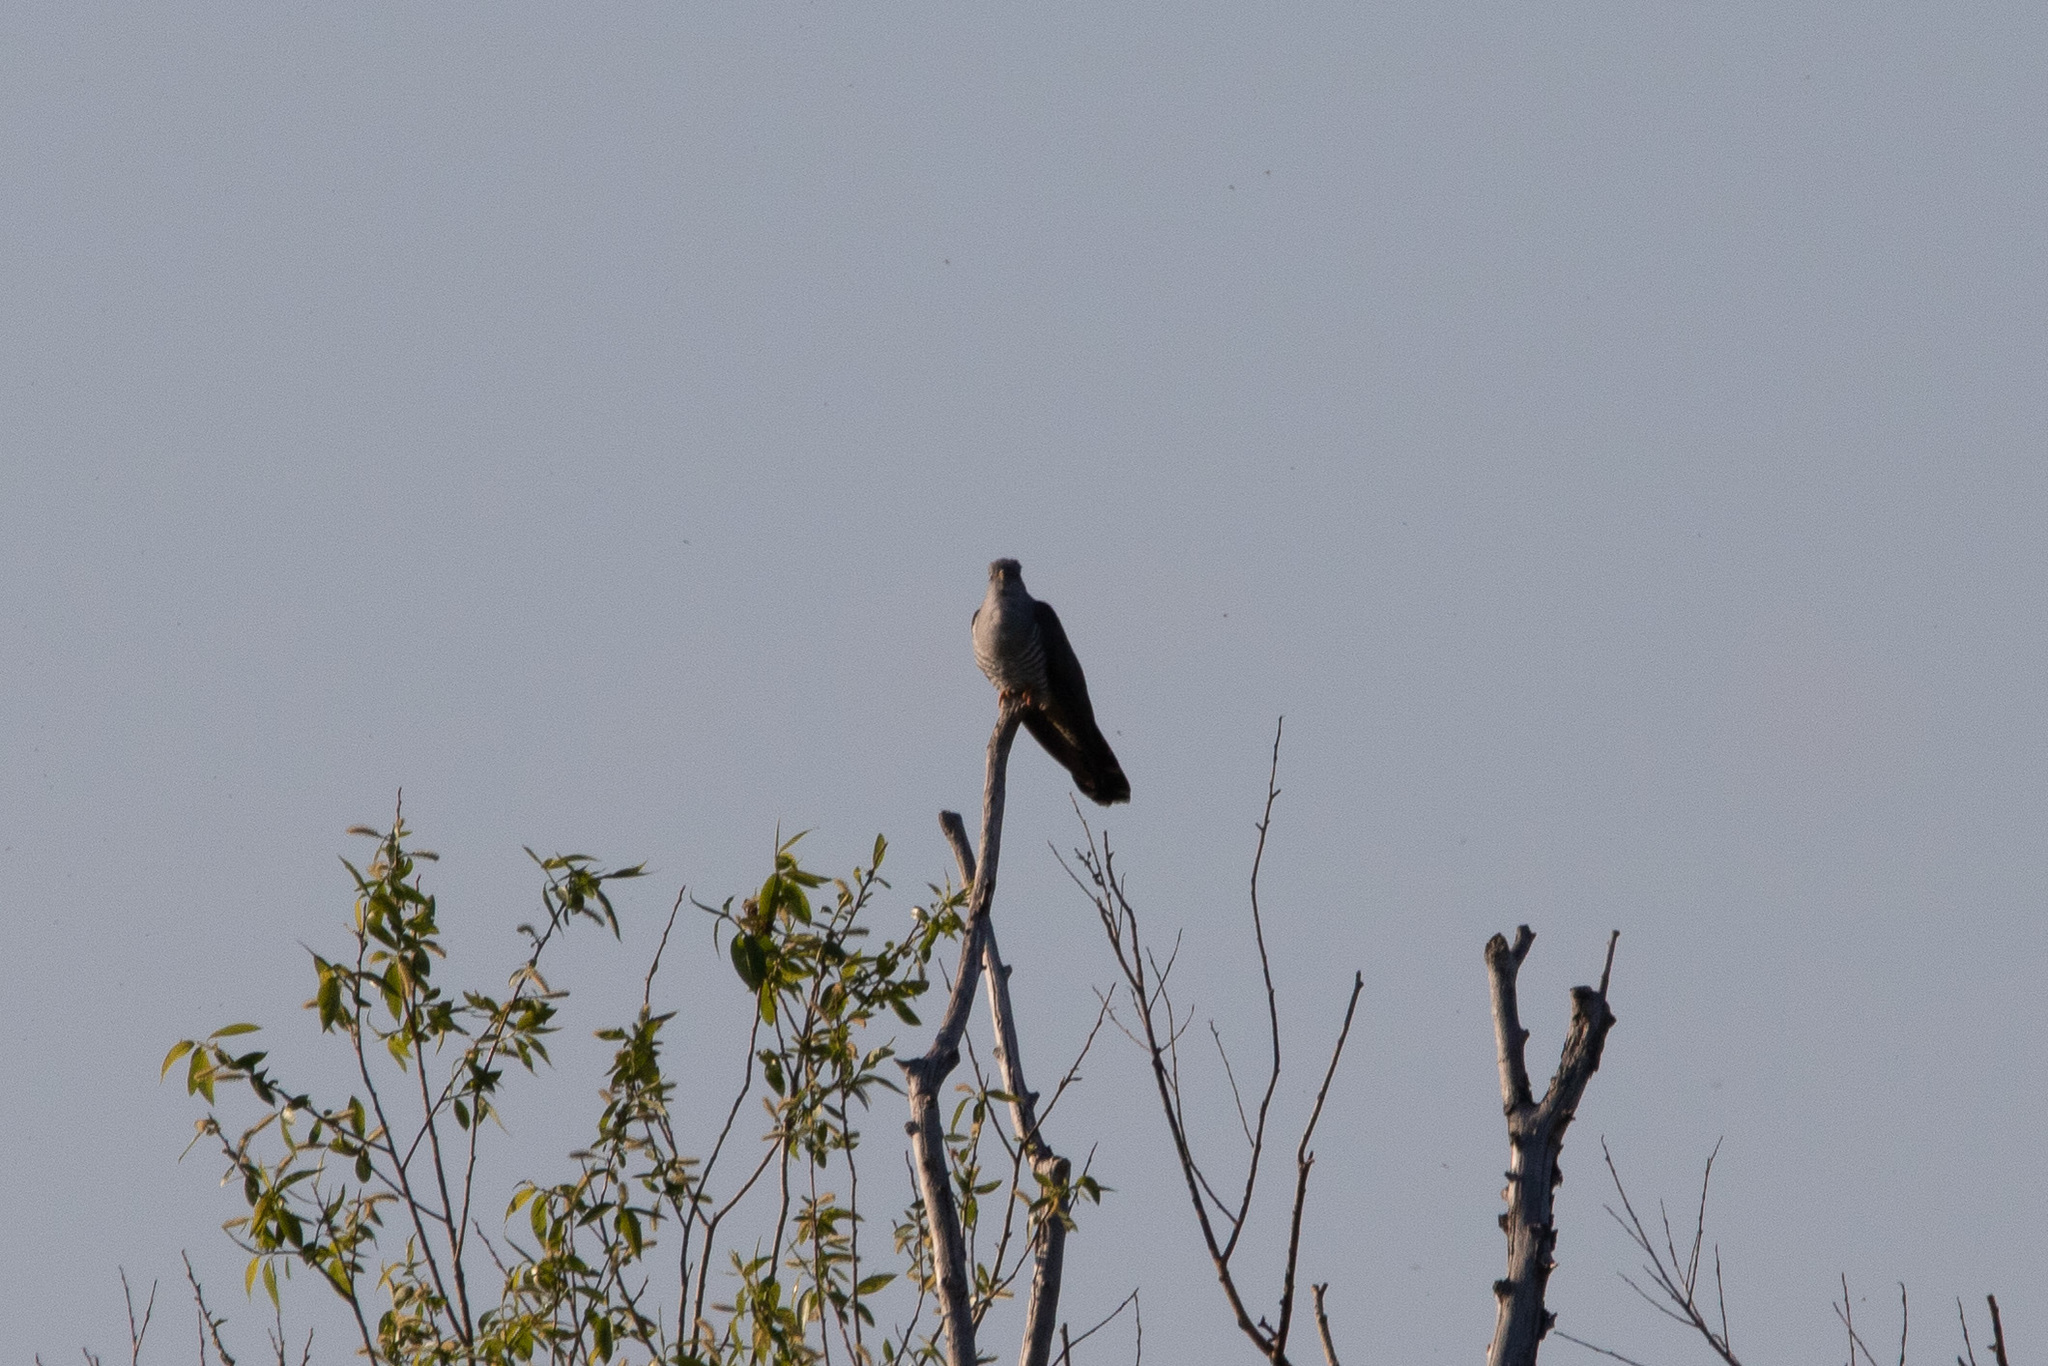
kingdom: Animalia
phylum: Chordata
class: Aves
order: Cuculiformes
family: Cuculidae
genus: Cuculus
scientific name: Cuculus canorus
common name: Common cuckoo
